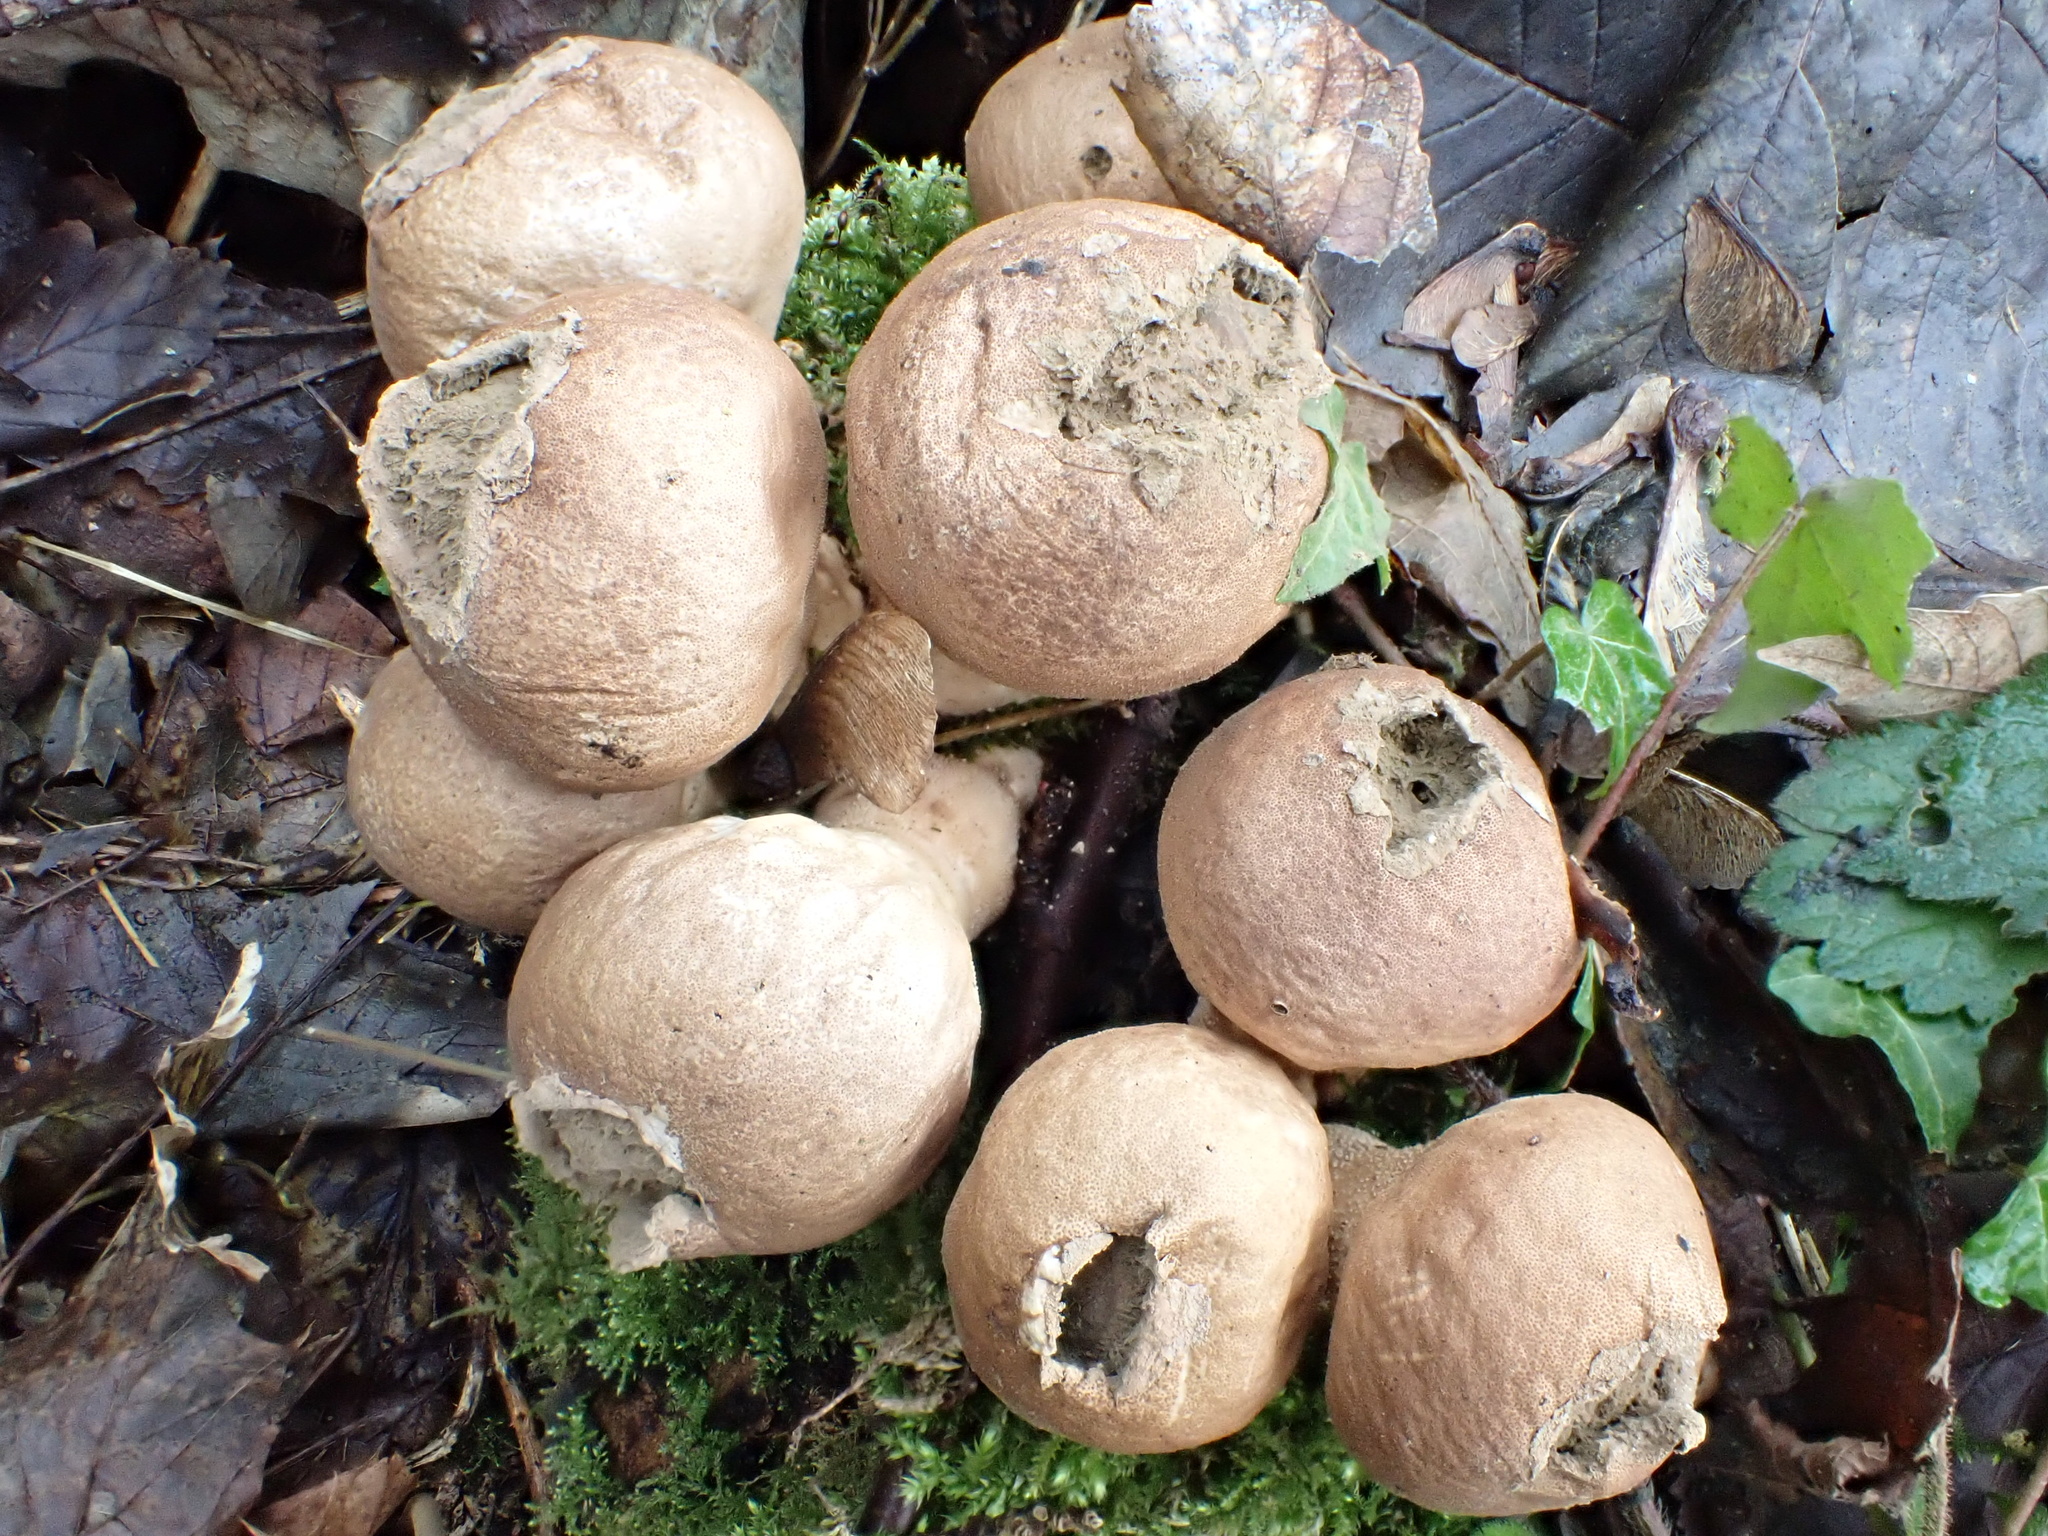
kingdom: Fungi
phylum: Basidiomycota
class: Agaricomycetes
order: Agaricales
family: Lycoperdaceae
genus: Apioperdon
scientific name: Apioperdon pyriforme
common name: Pear-shaped puffball
